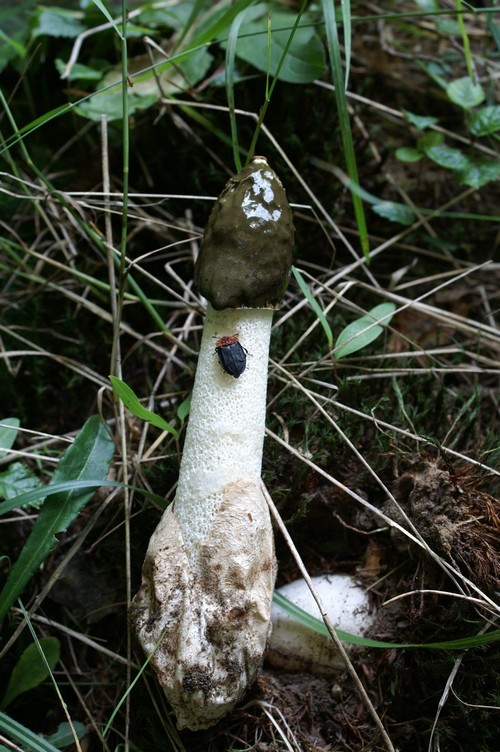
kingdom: Fungi
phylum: Basidiomycota
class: Agaricomycetes
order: Phallales
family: Phallaceae
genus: Phallus
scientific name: Phallus impudicus
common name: Common stinkhorn
